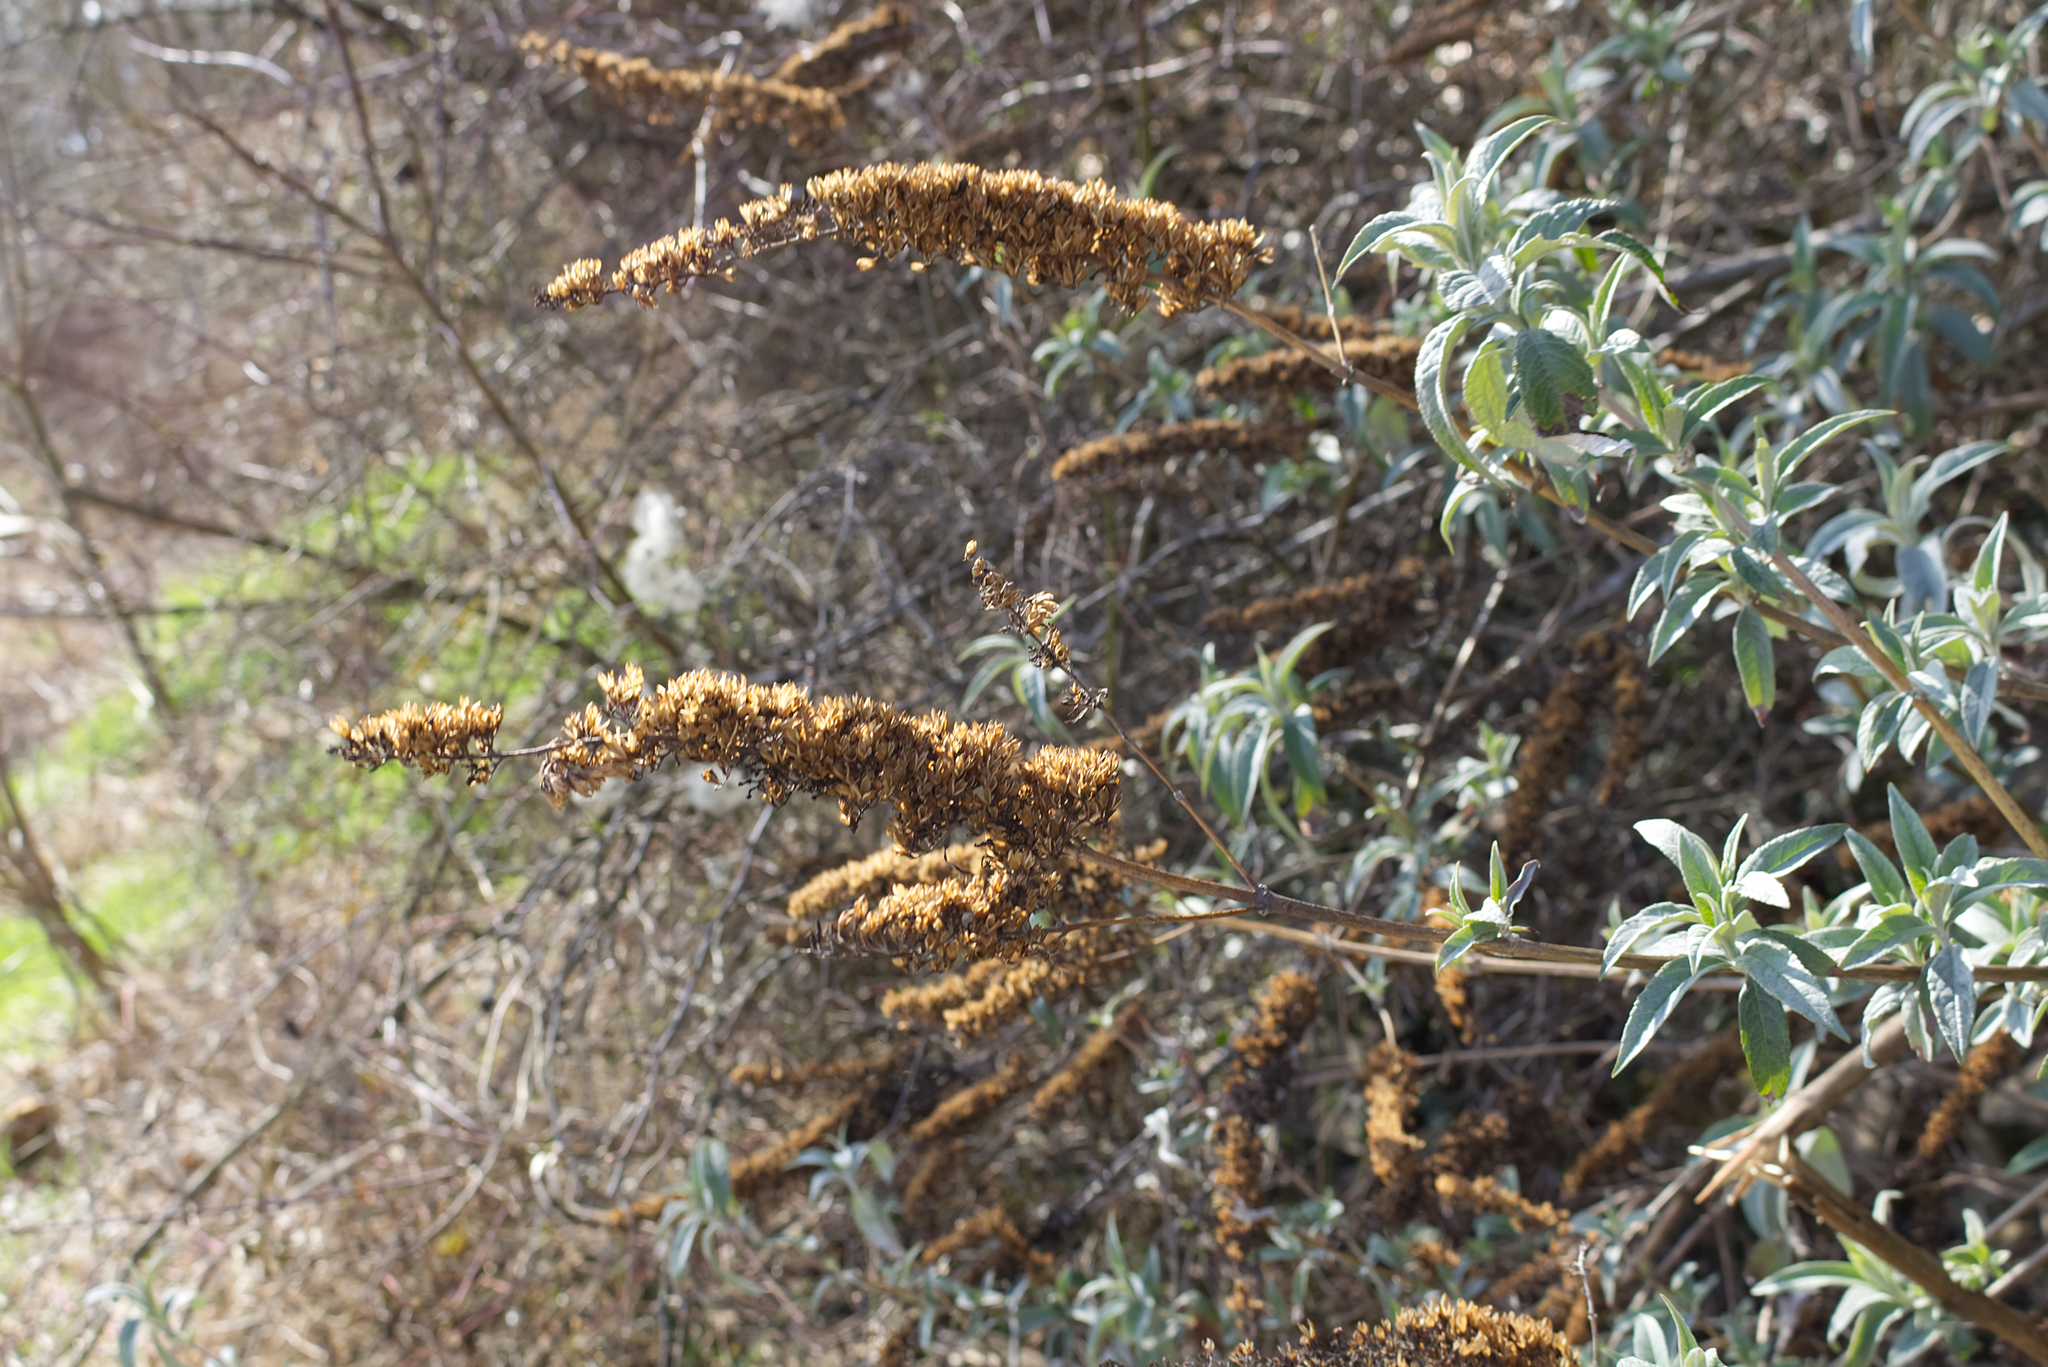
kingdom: Plantae
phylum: Tracheophyta
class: Magnoliopsida
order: Lamiales
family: Scrophulariaceae
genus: Buddleja
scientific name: Buddleja davidii
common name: Butterfly-bush
